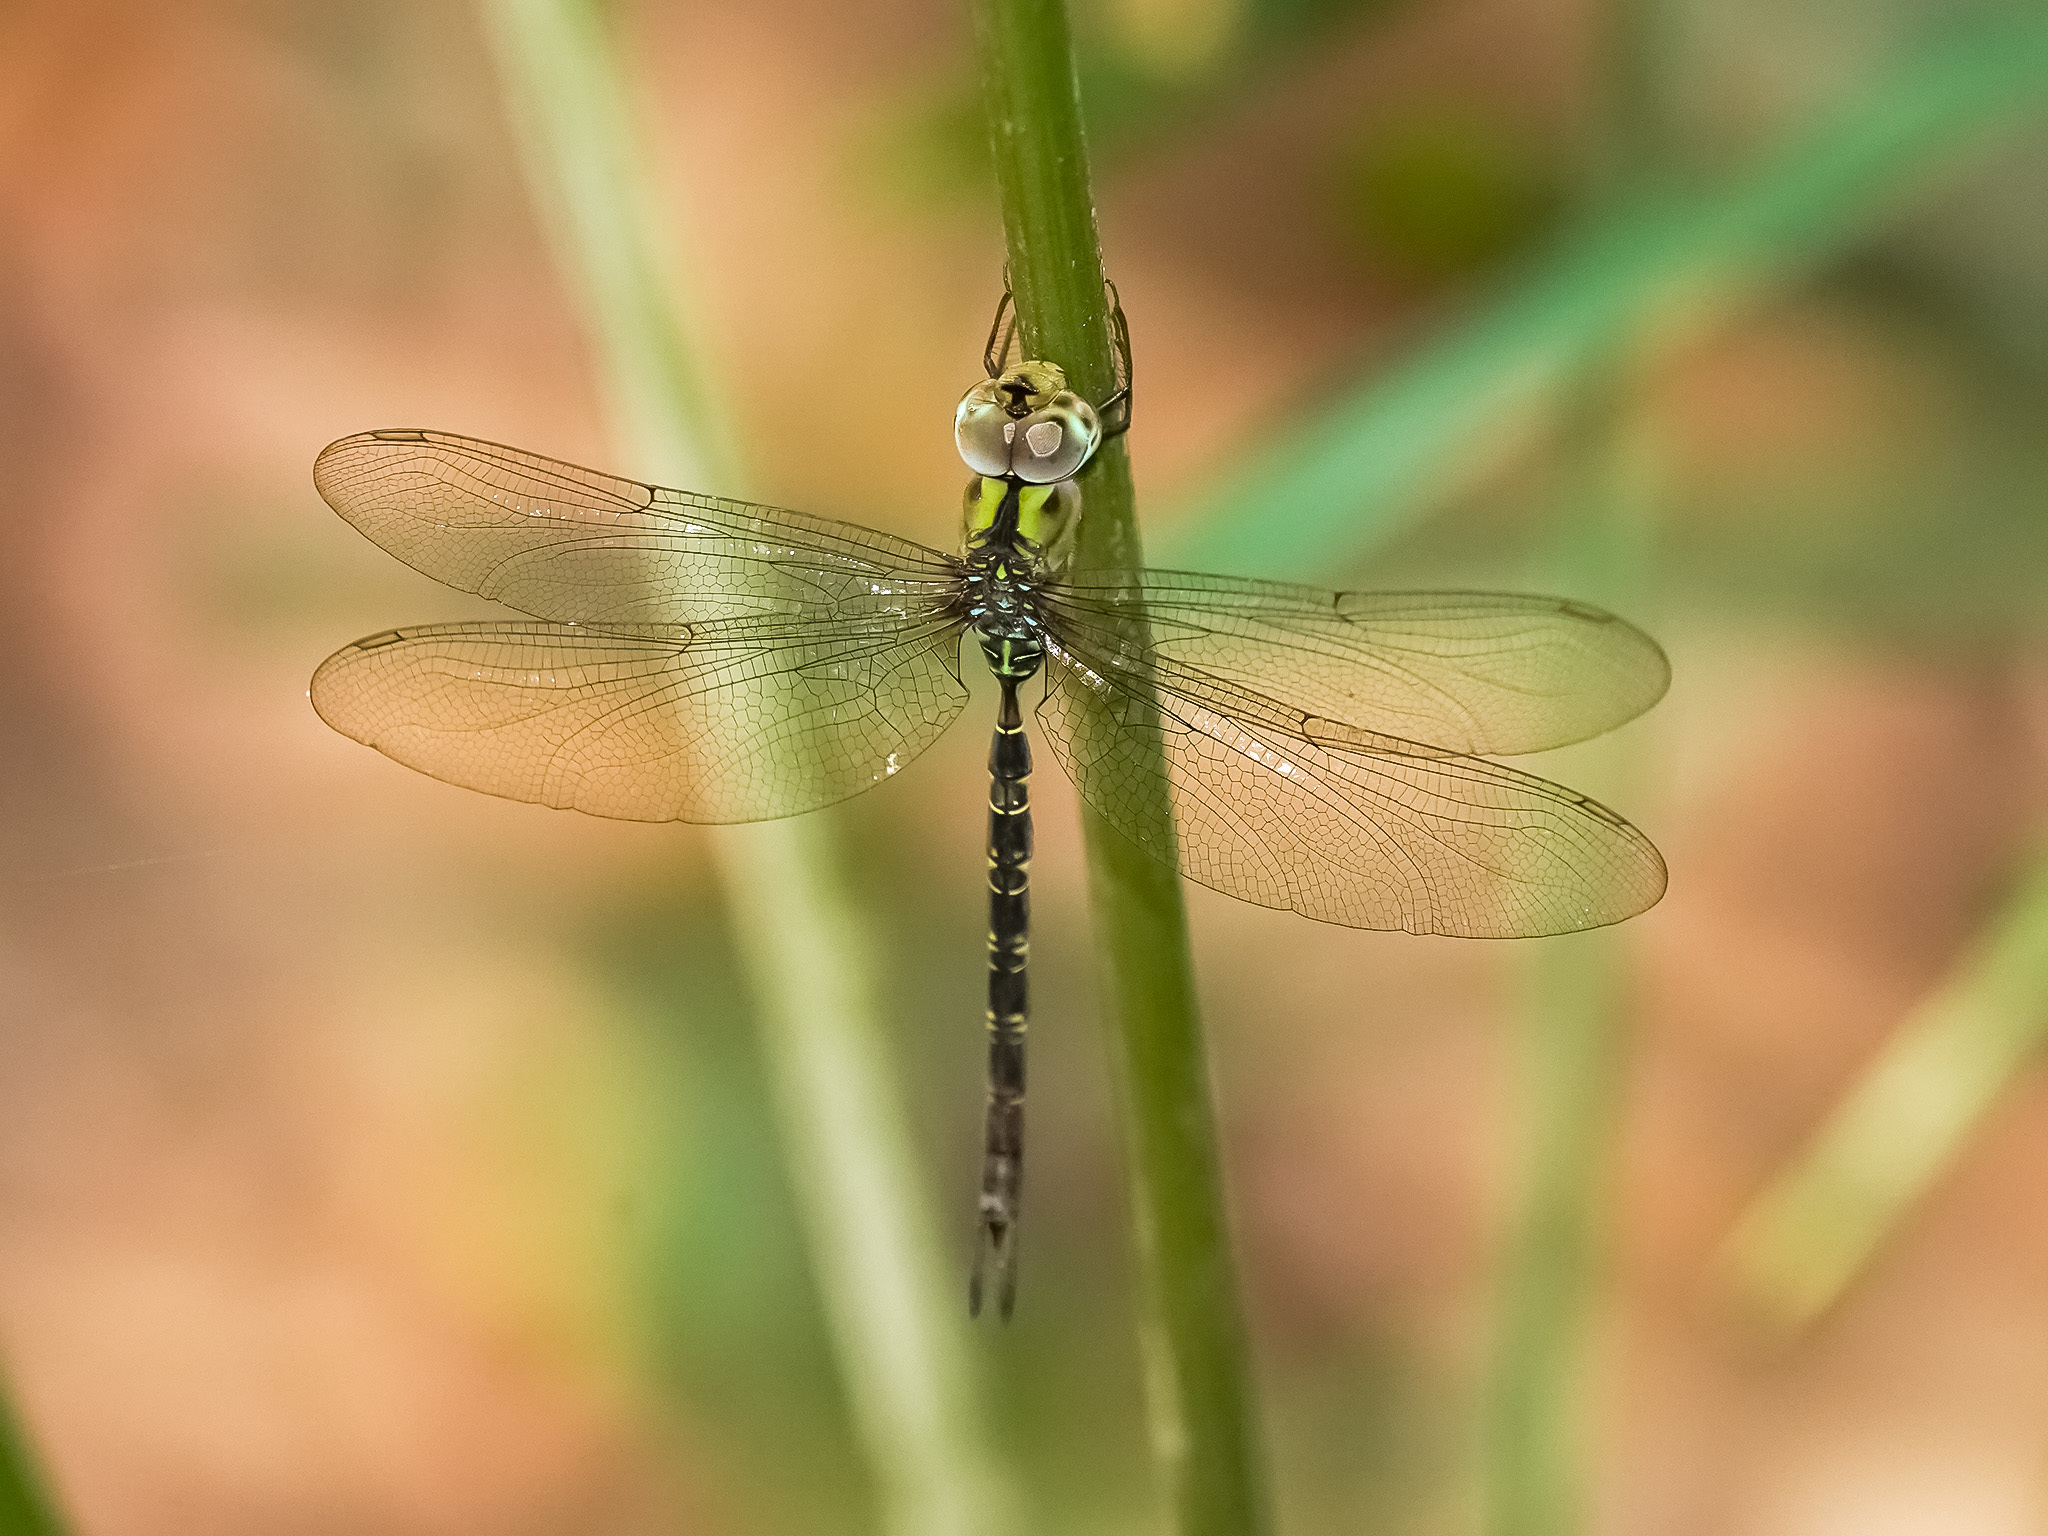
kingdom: Animalia
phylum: Arthropoda
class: Insecta
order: Odonata
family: Aeshnidae
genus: Gynacantha
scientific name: Gynacantha subinterrupta
